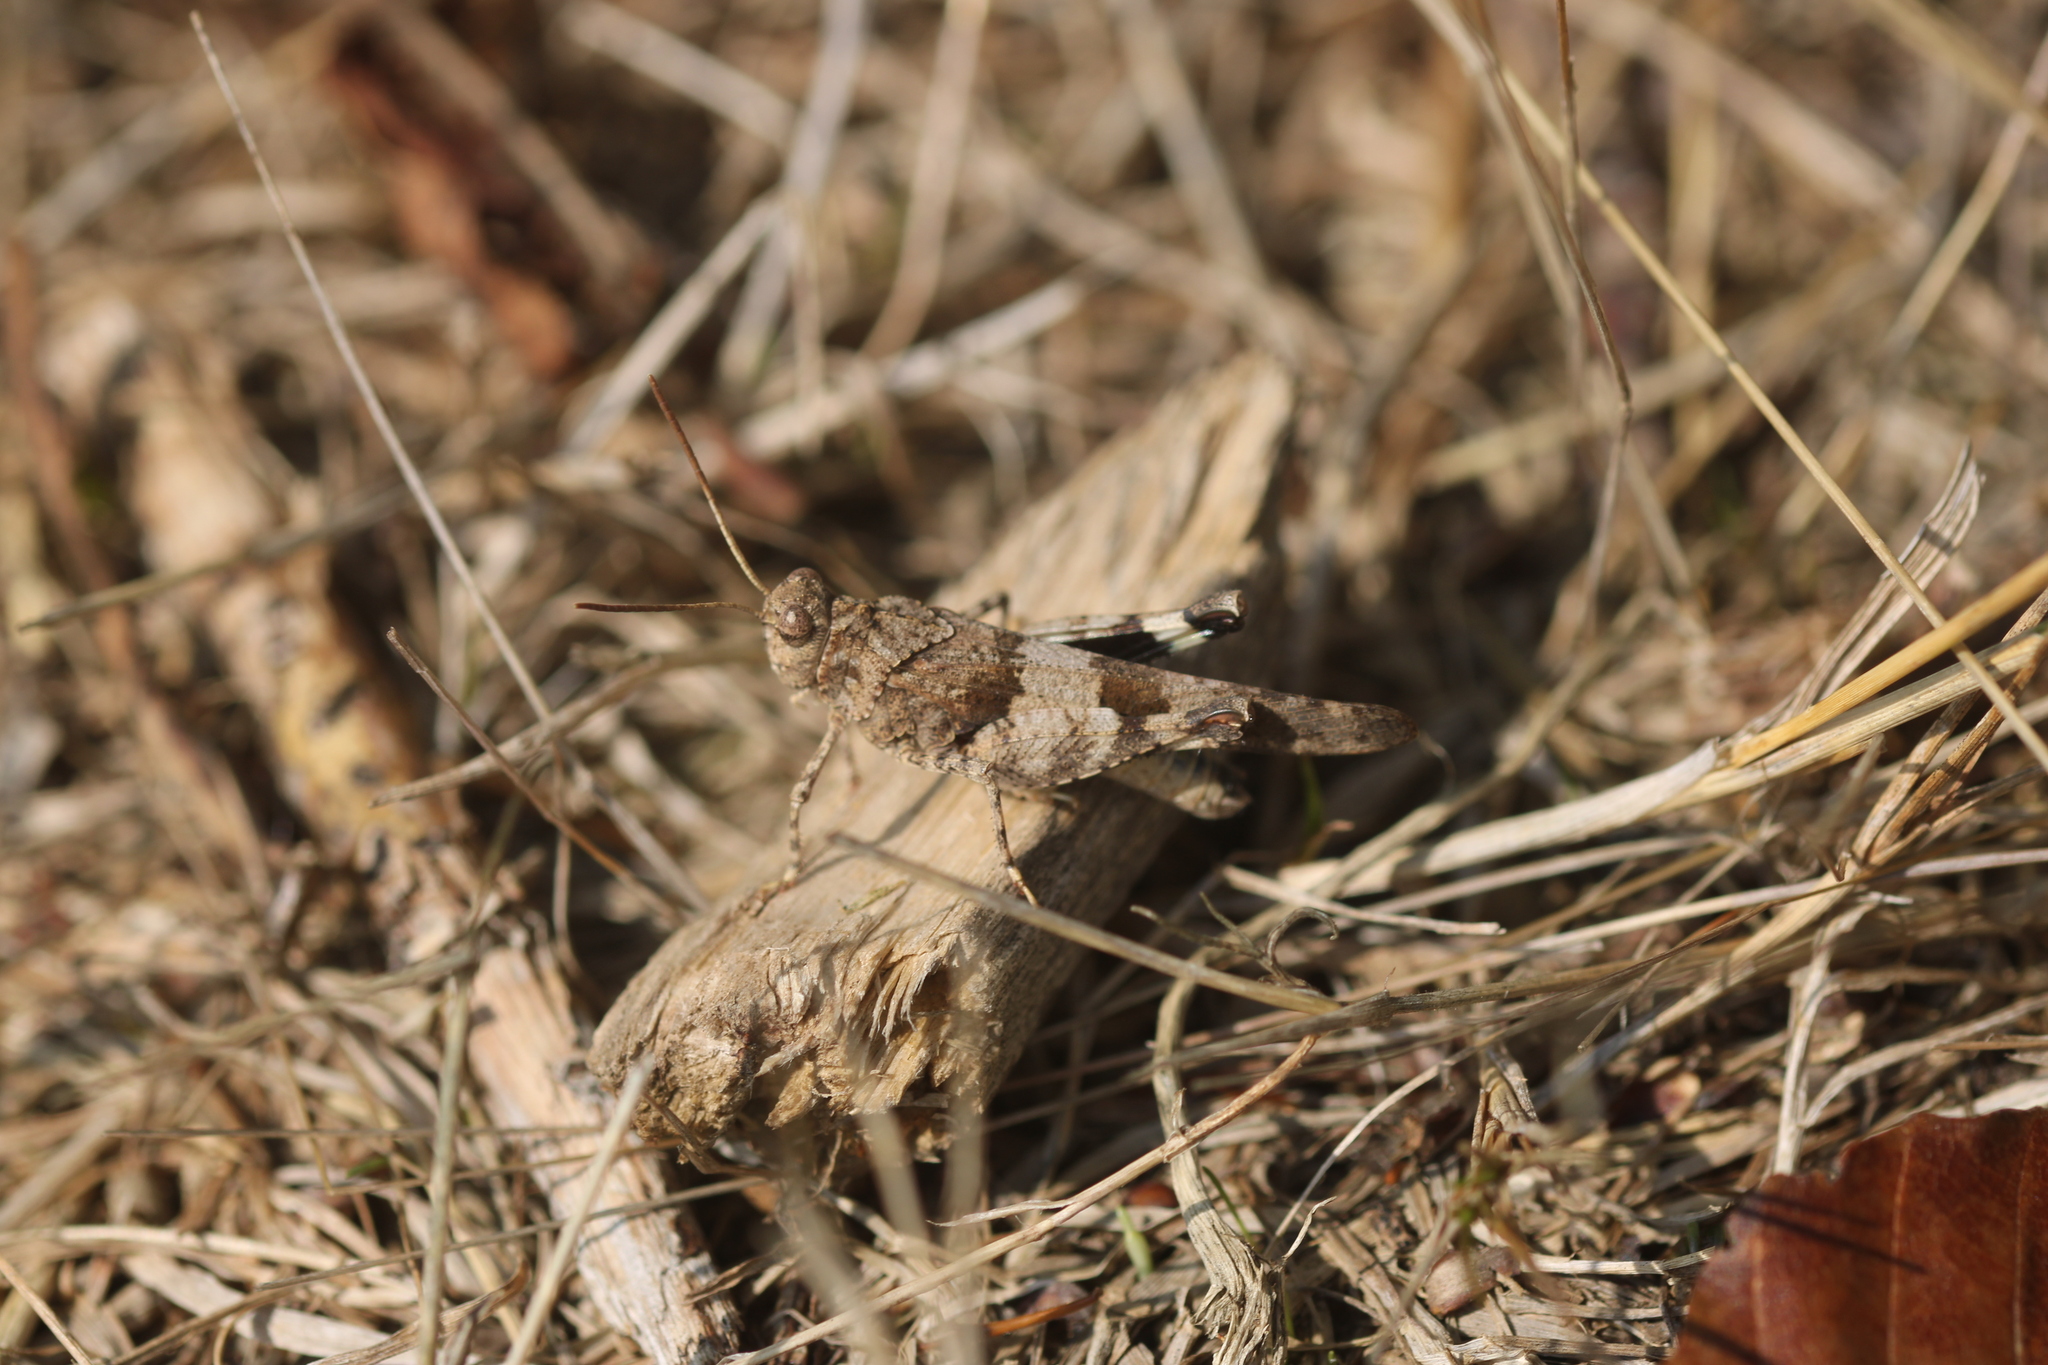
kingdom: Animalia
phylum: Arthropoda
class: Insecta
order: Orthoptera
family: Acrididae
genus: Oedipoda
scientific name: Oedipoda caerulescens
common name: Blue-winged grasshopper
